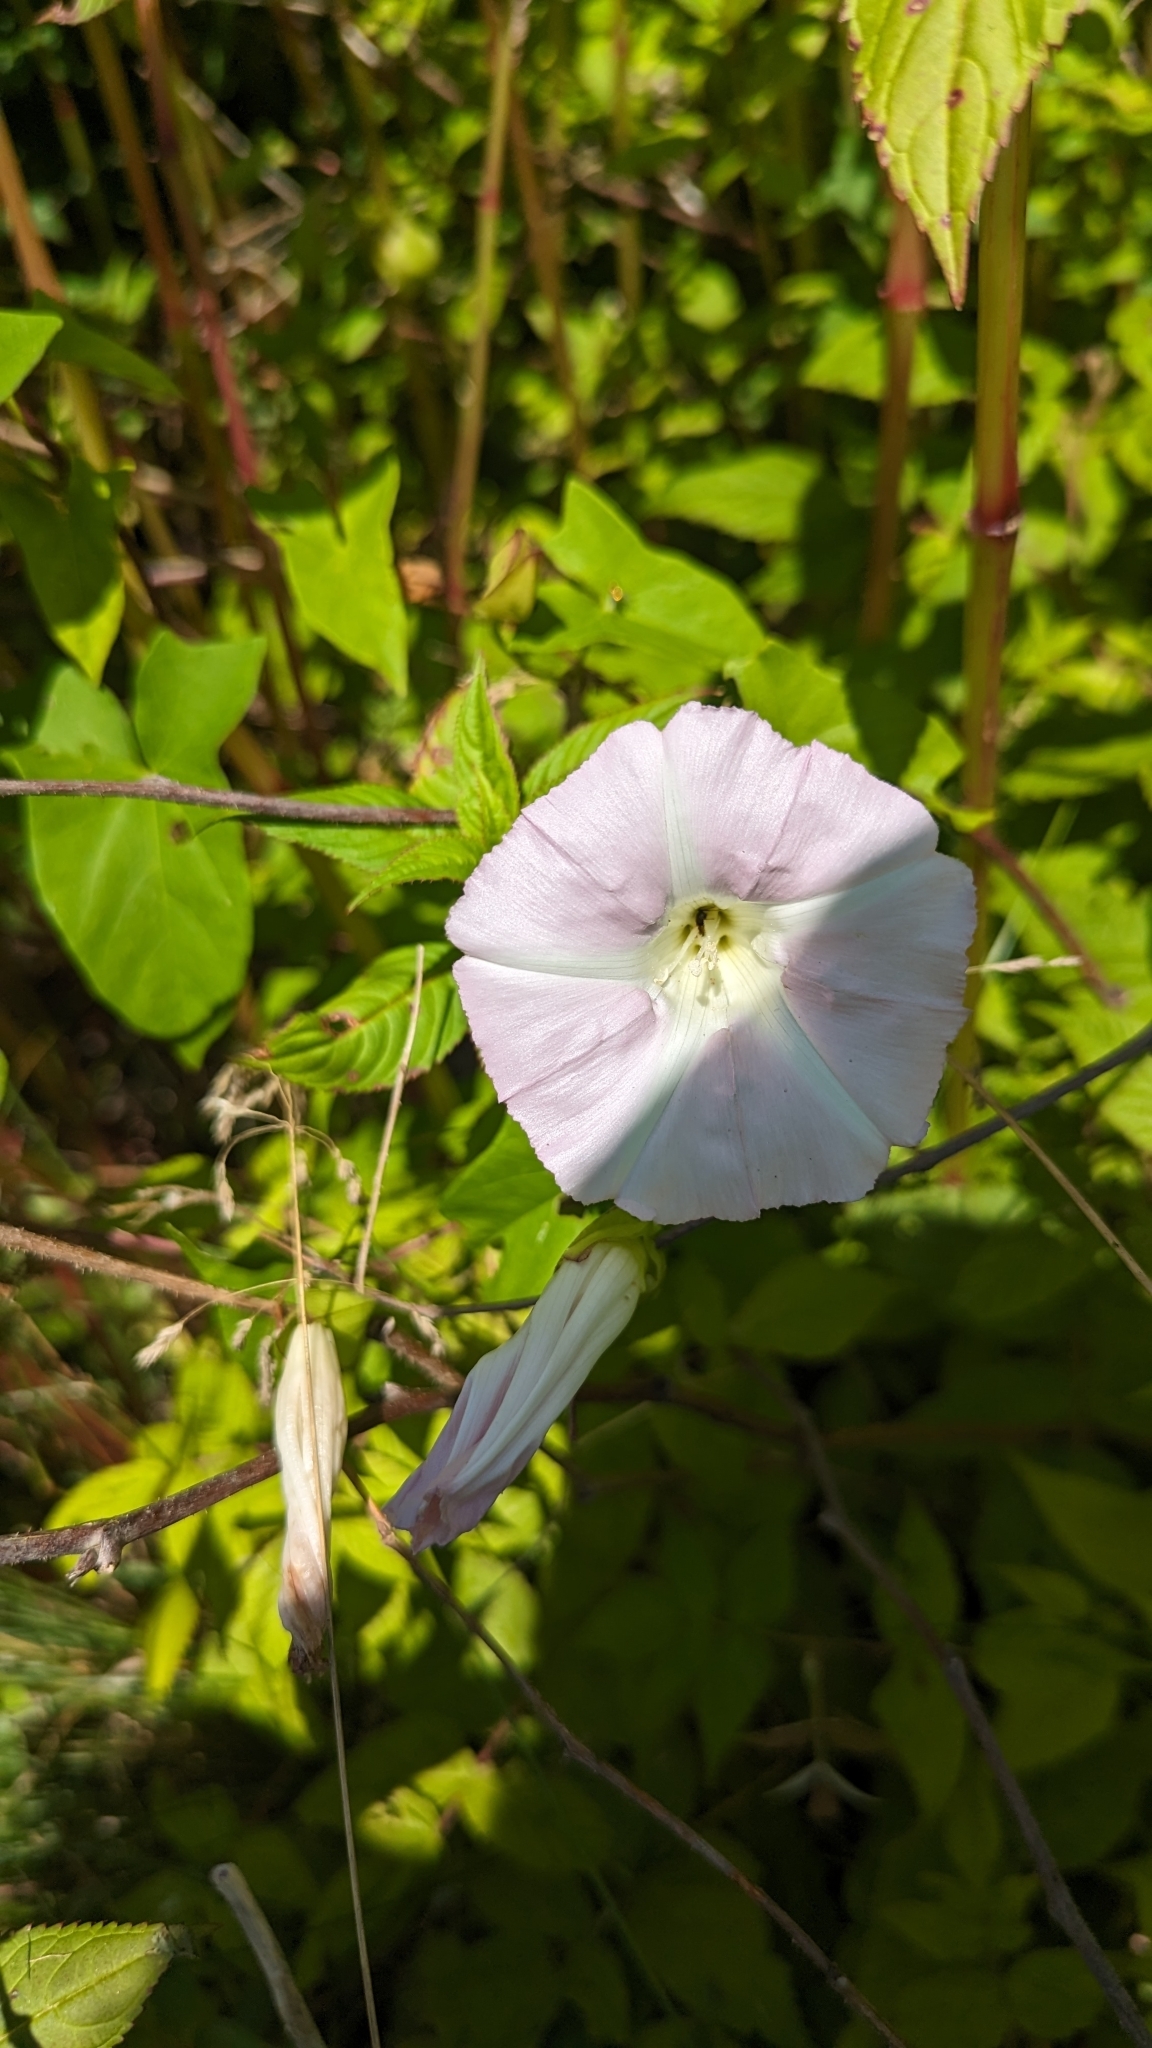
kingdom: Plantae
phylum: Tracheophyta
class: Magnoliopsida
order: Solanales
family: Convolvulaceae
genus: Calystegia
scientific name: Calystegia sepium
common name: Hedge bindweed
